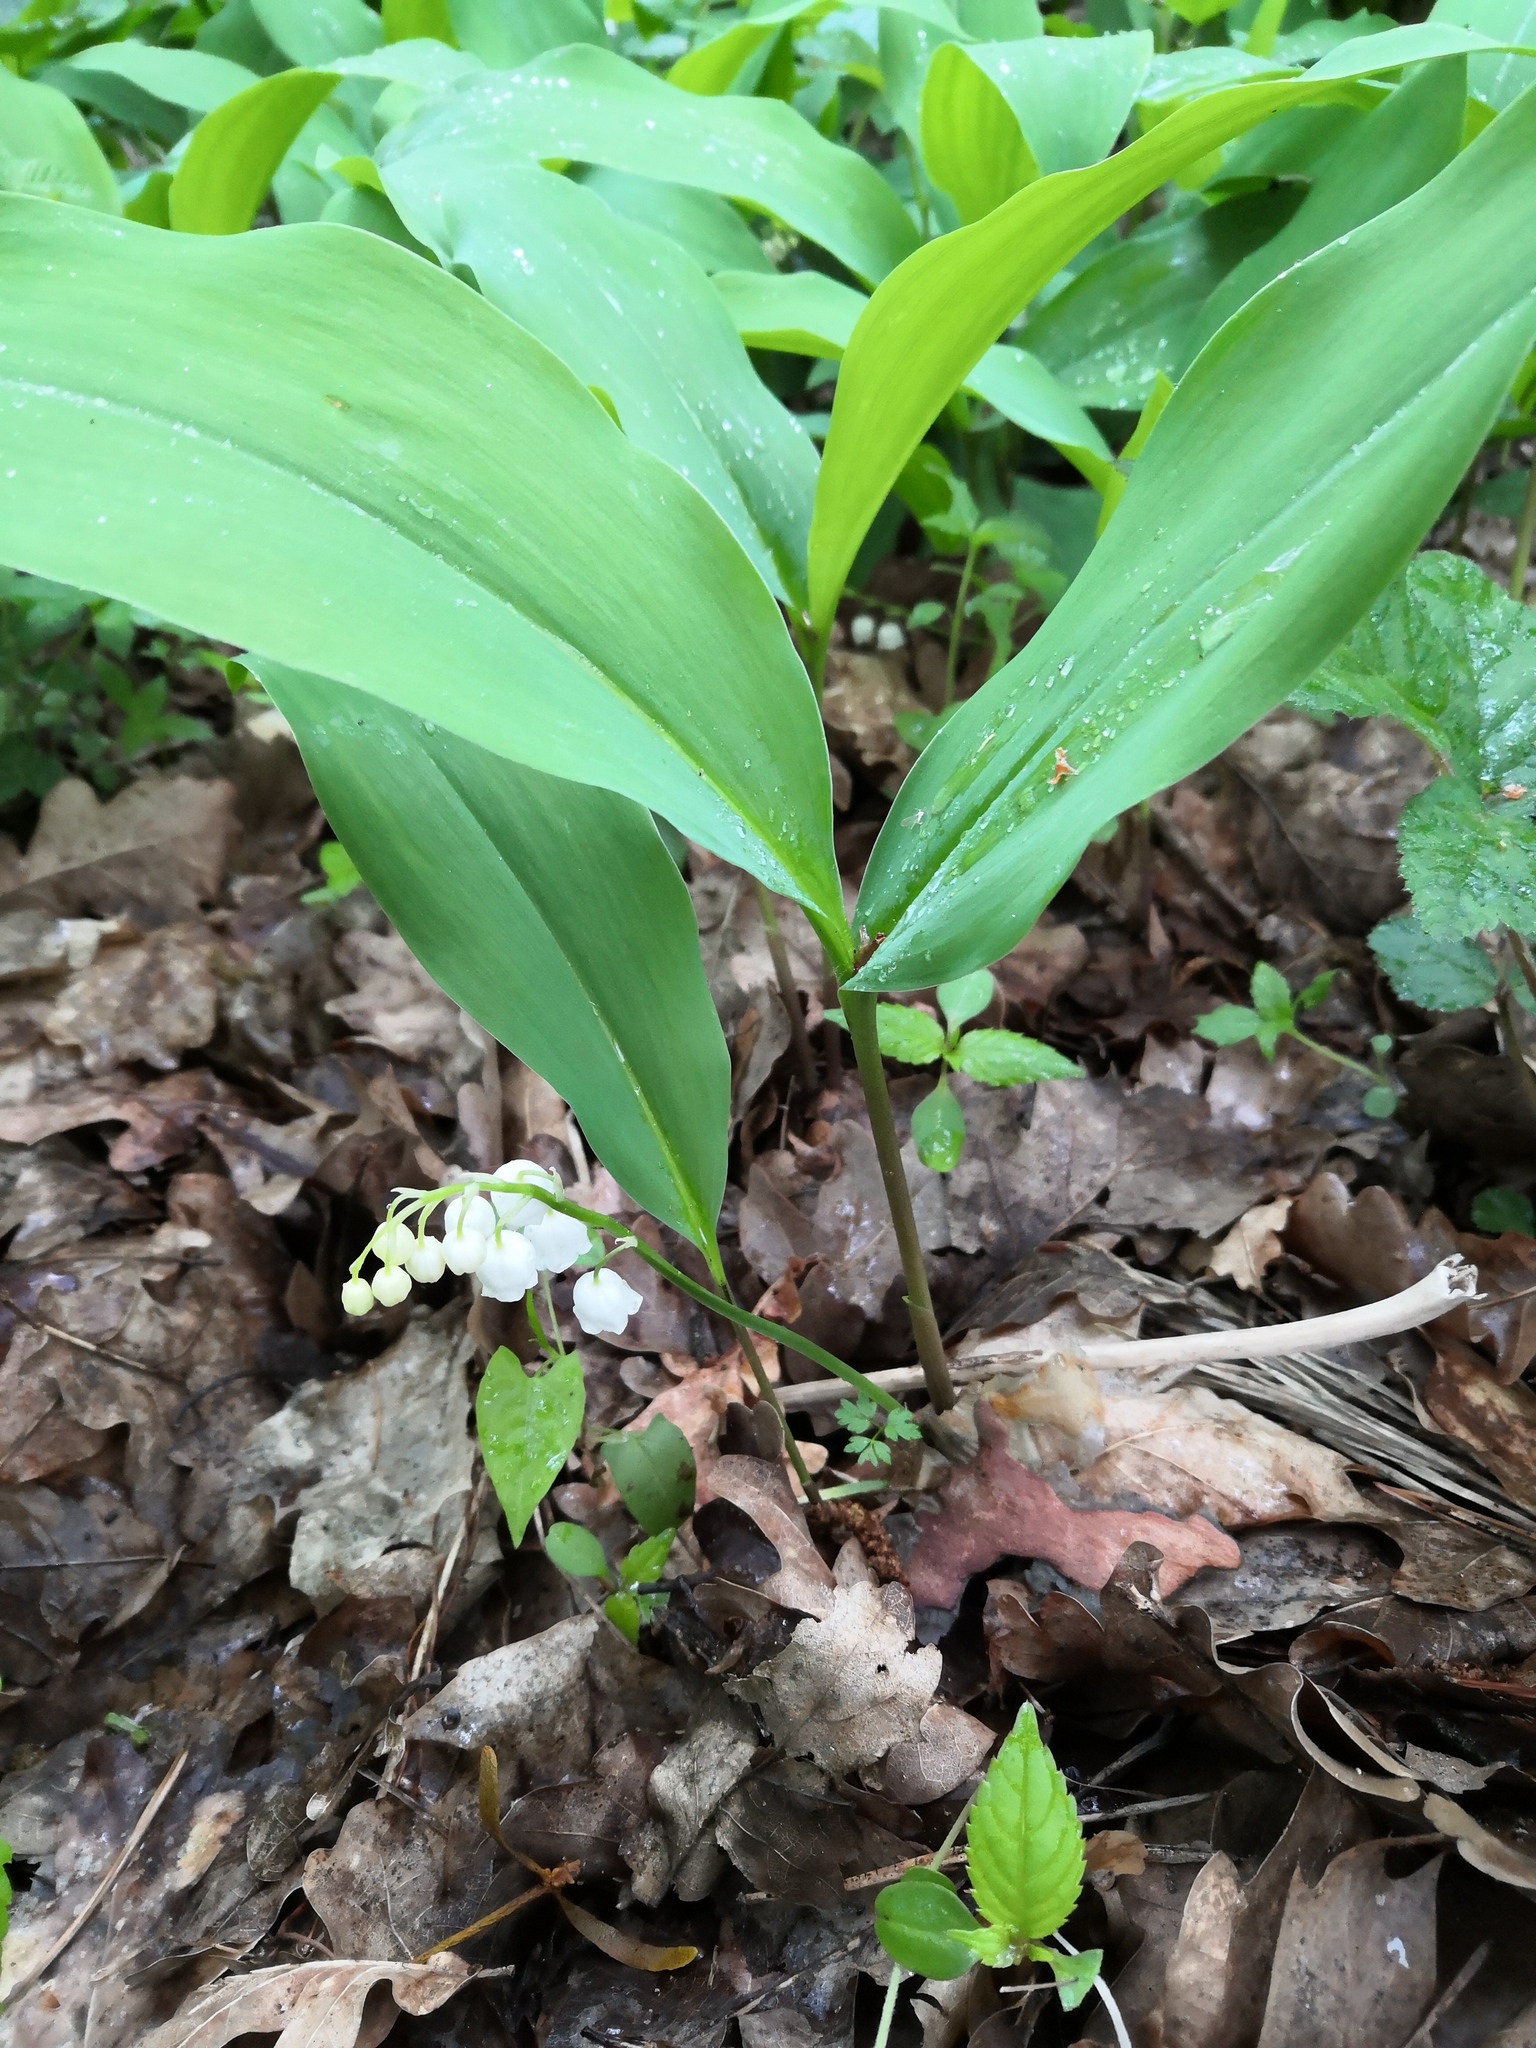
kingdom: Plantae
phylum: Tracheophyta
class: Liliopsida
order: Asparagales
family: Asparagaceae
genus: Convallaria
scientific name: Convallaria majalis
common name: Lily-of-the-valley
